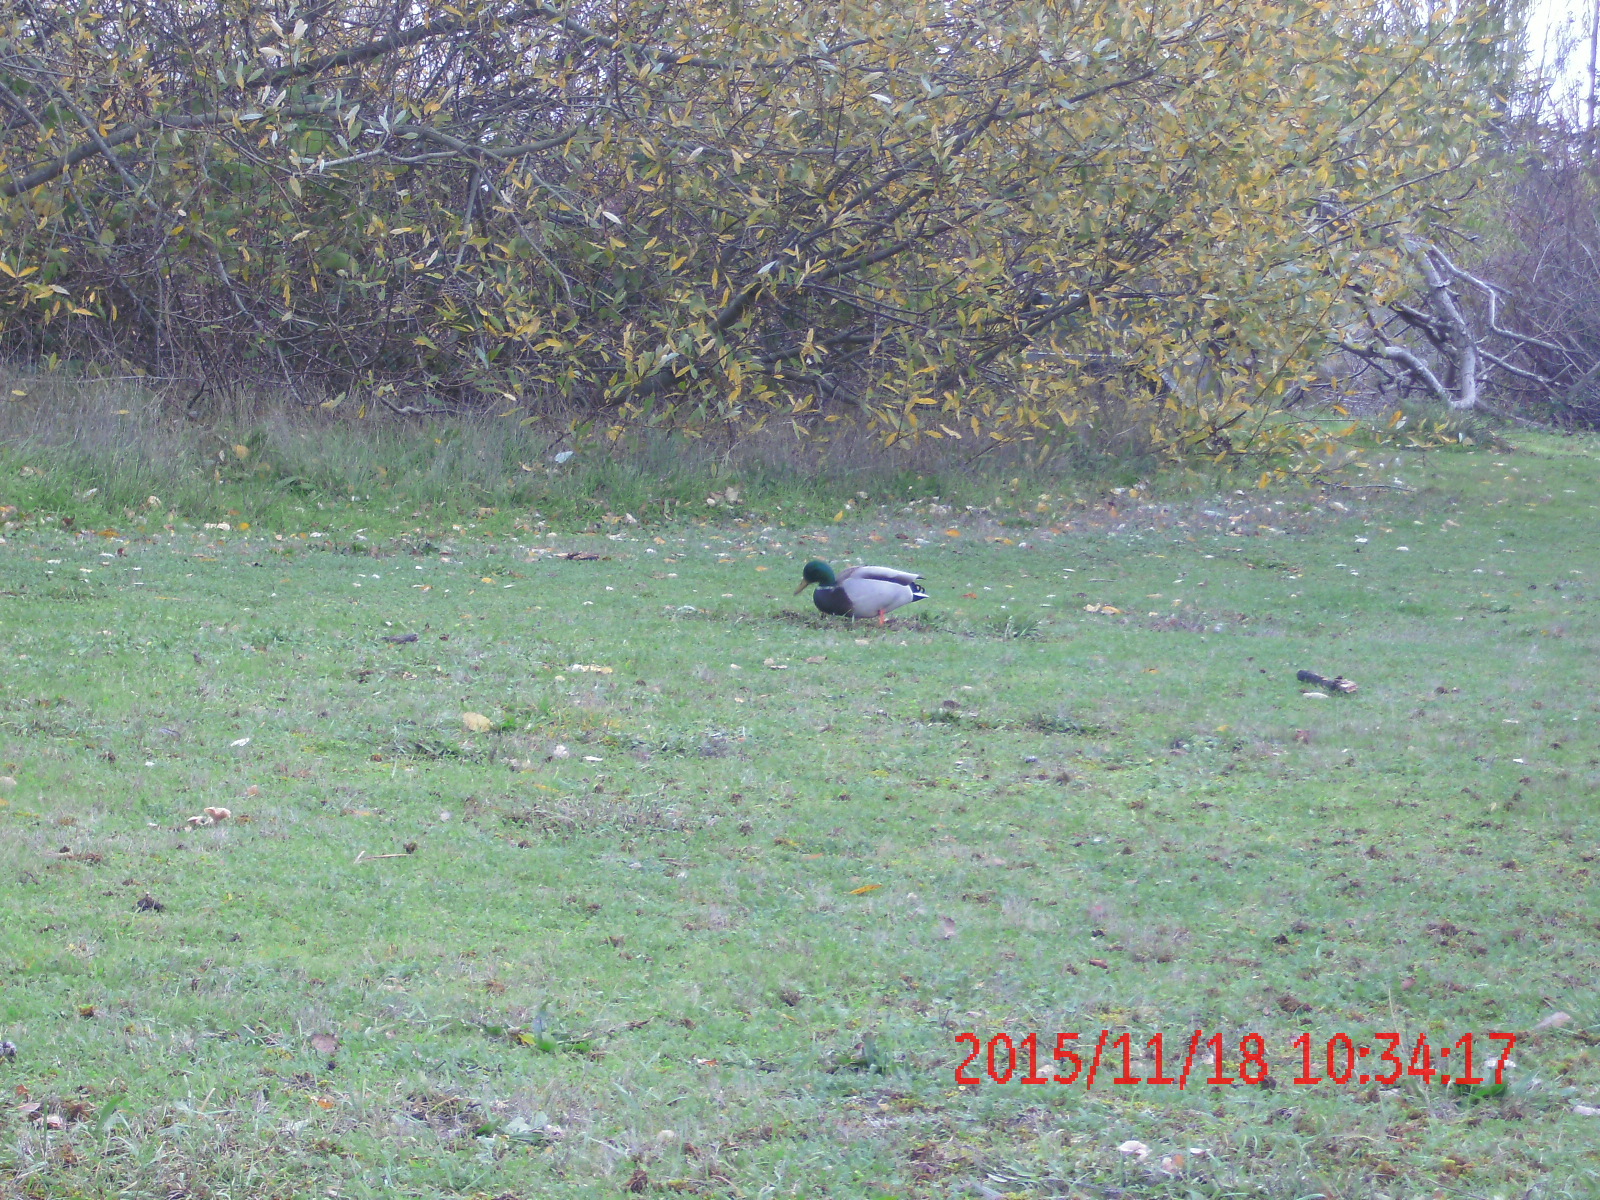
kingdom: Animalia
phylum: Chordata
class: Aves
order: Anseriformes
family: Anatidae
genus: Anas
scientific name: Anas platyrhynchos
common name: Mallard
